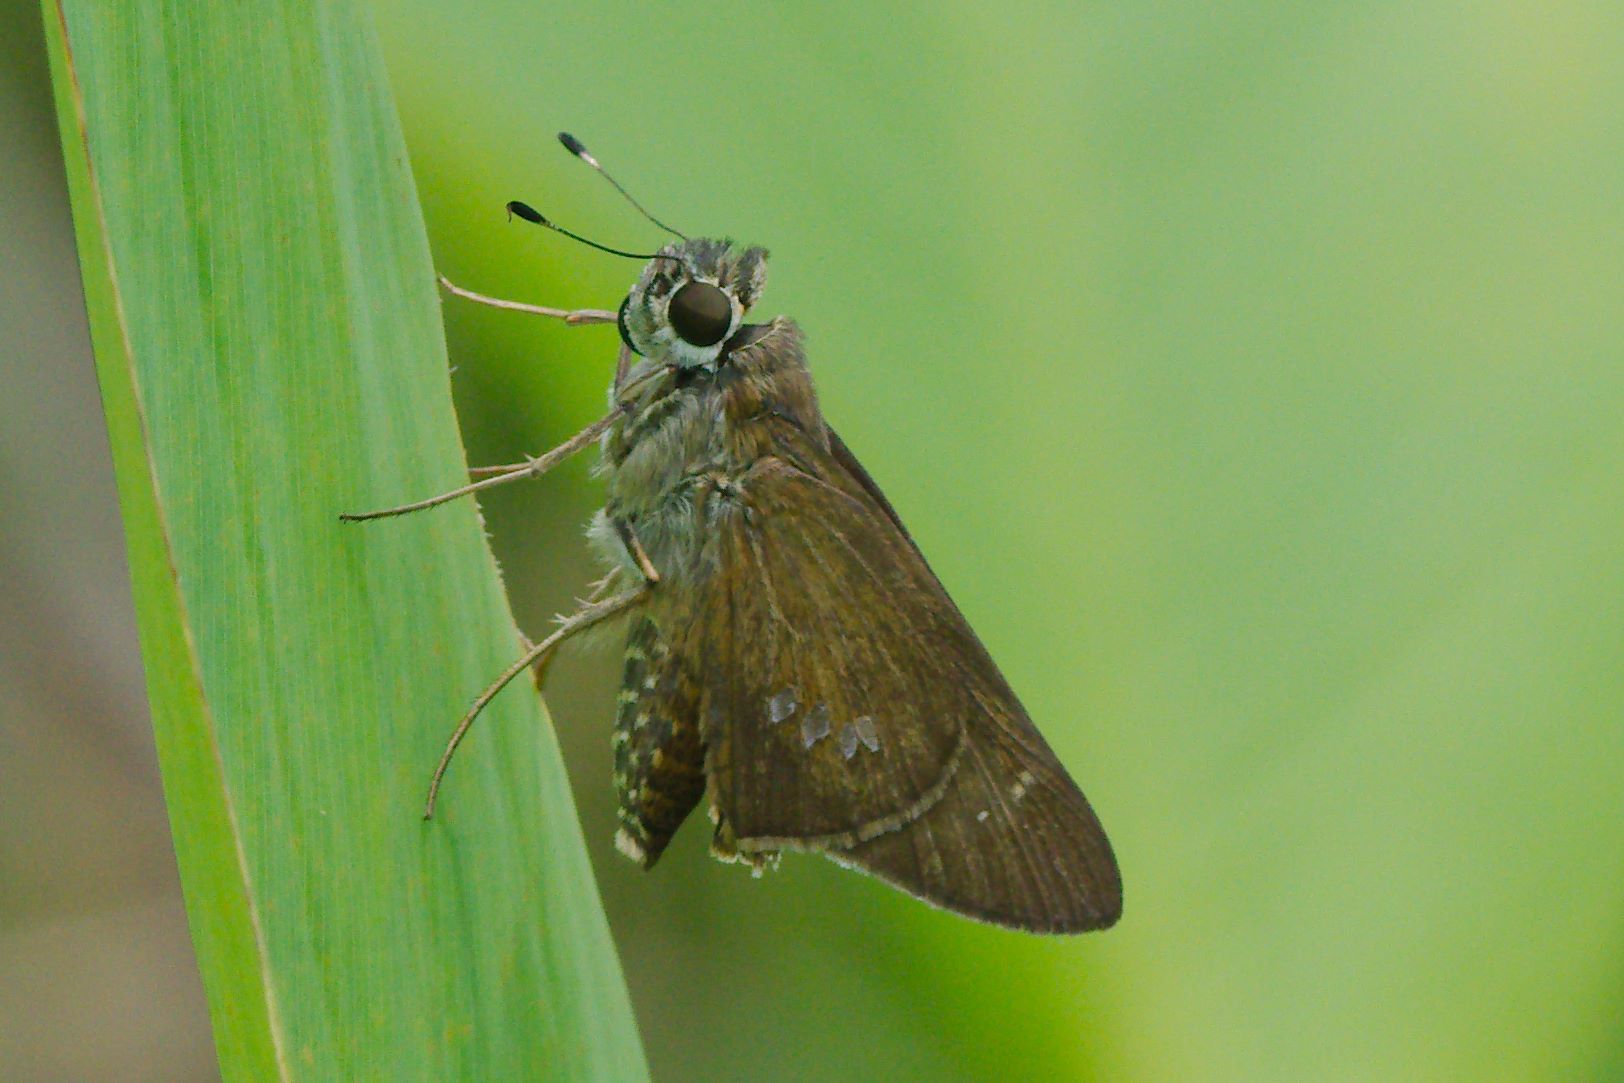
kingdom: Animalia
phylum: Arthropoda
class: Insecta
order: Lepidoptera
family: Hesperiidae
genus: Calpodes
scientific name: Calpodes ethlius
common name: Brazilian skipper
